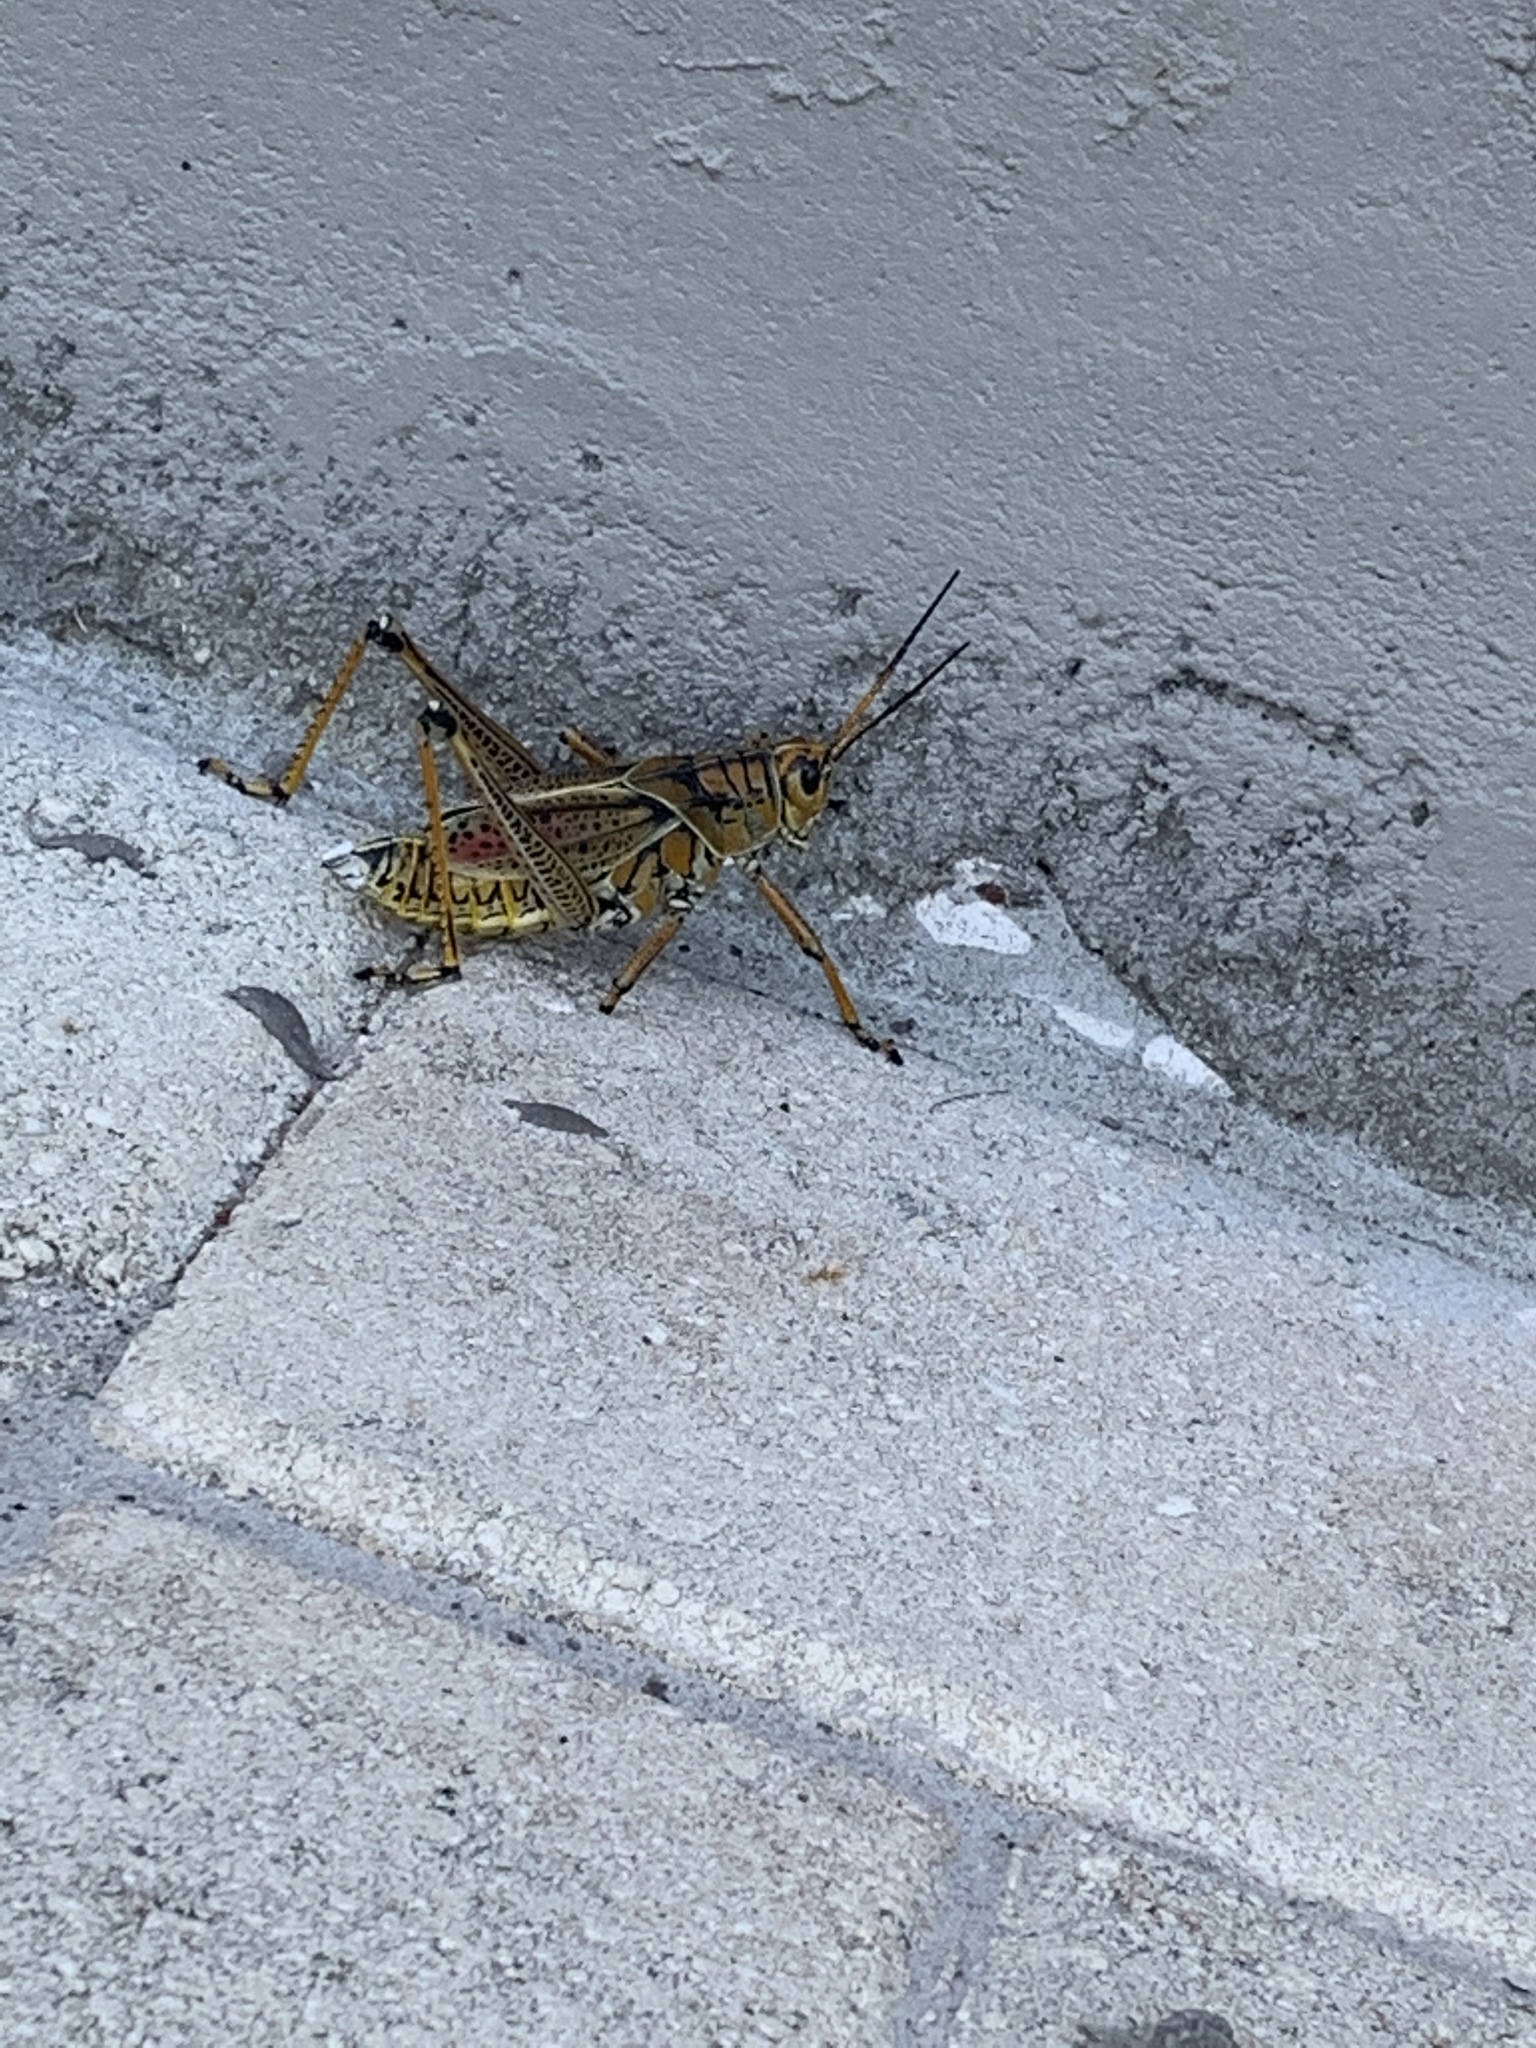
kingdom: Animalia
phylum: Arthropoda
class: Insecta
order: Orthoptera
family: Romaleidae
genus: Romalea
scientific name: Romalea microptera
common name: Eastern lubber grasshopper
